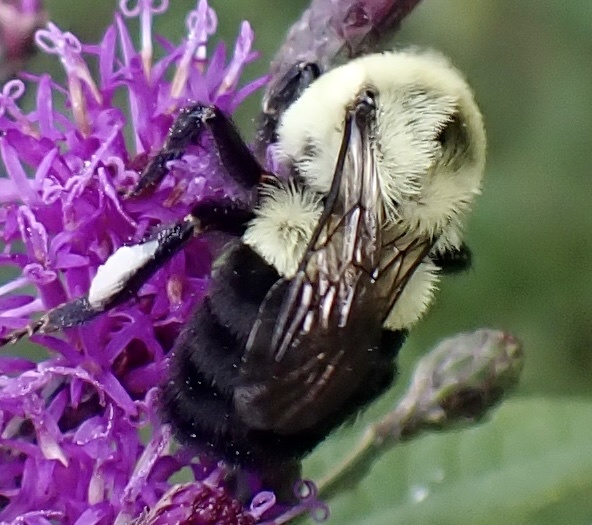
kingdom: Animalia
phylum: Arthropoda
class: Insecta
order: Hymenoptera
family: Apidae
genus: Bombus
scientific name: Bombus impatiens
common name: Common eastern bumble bee
